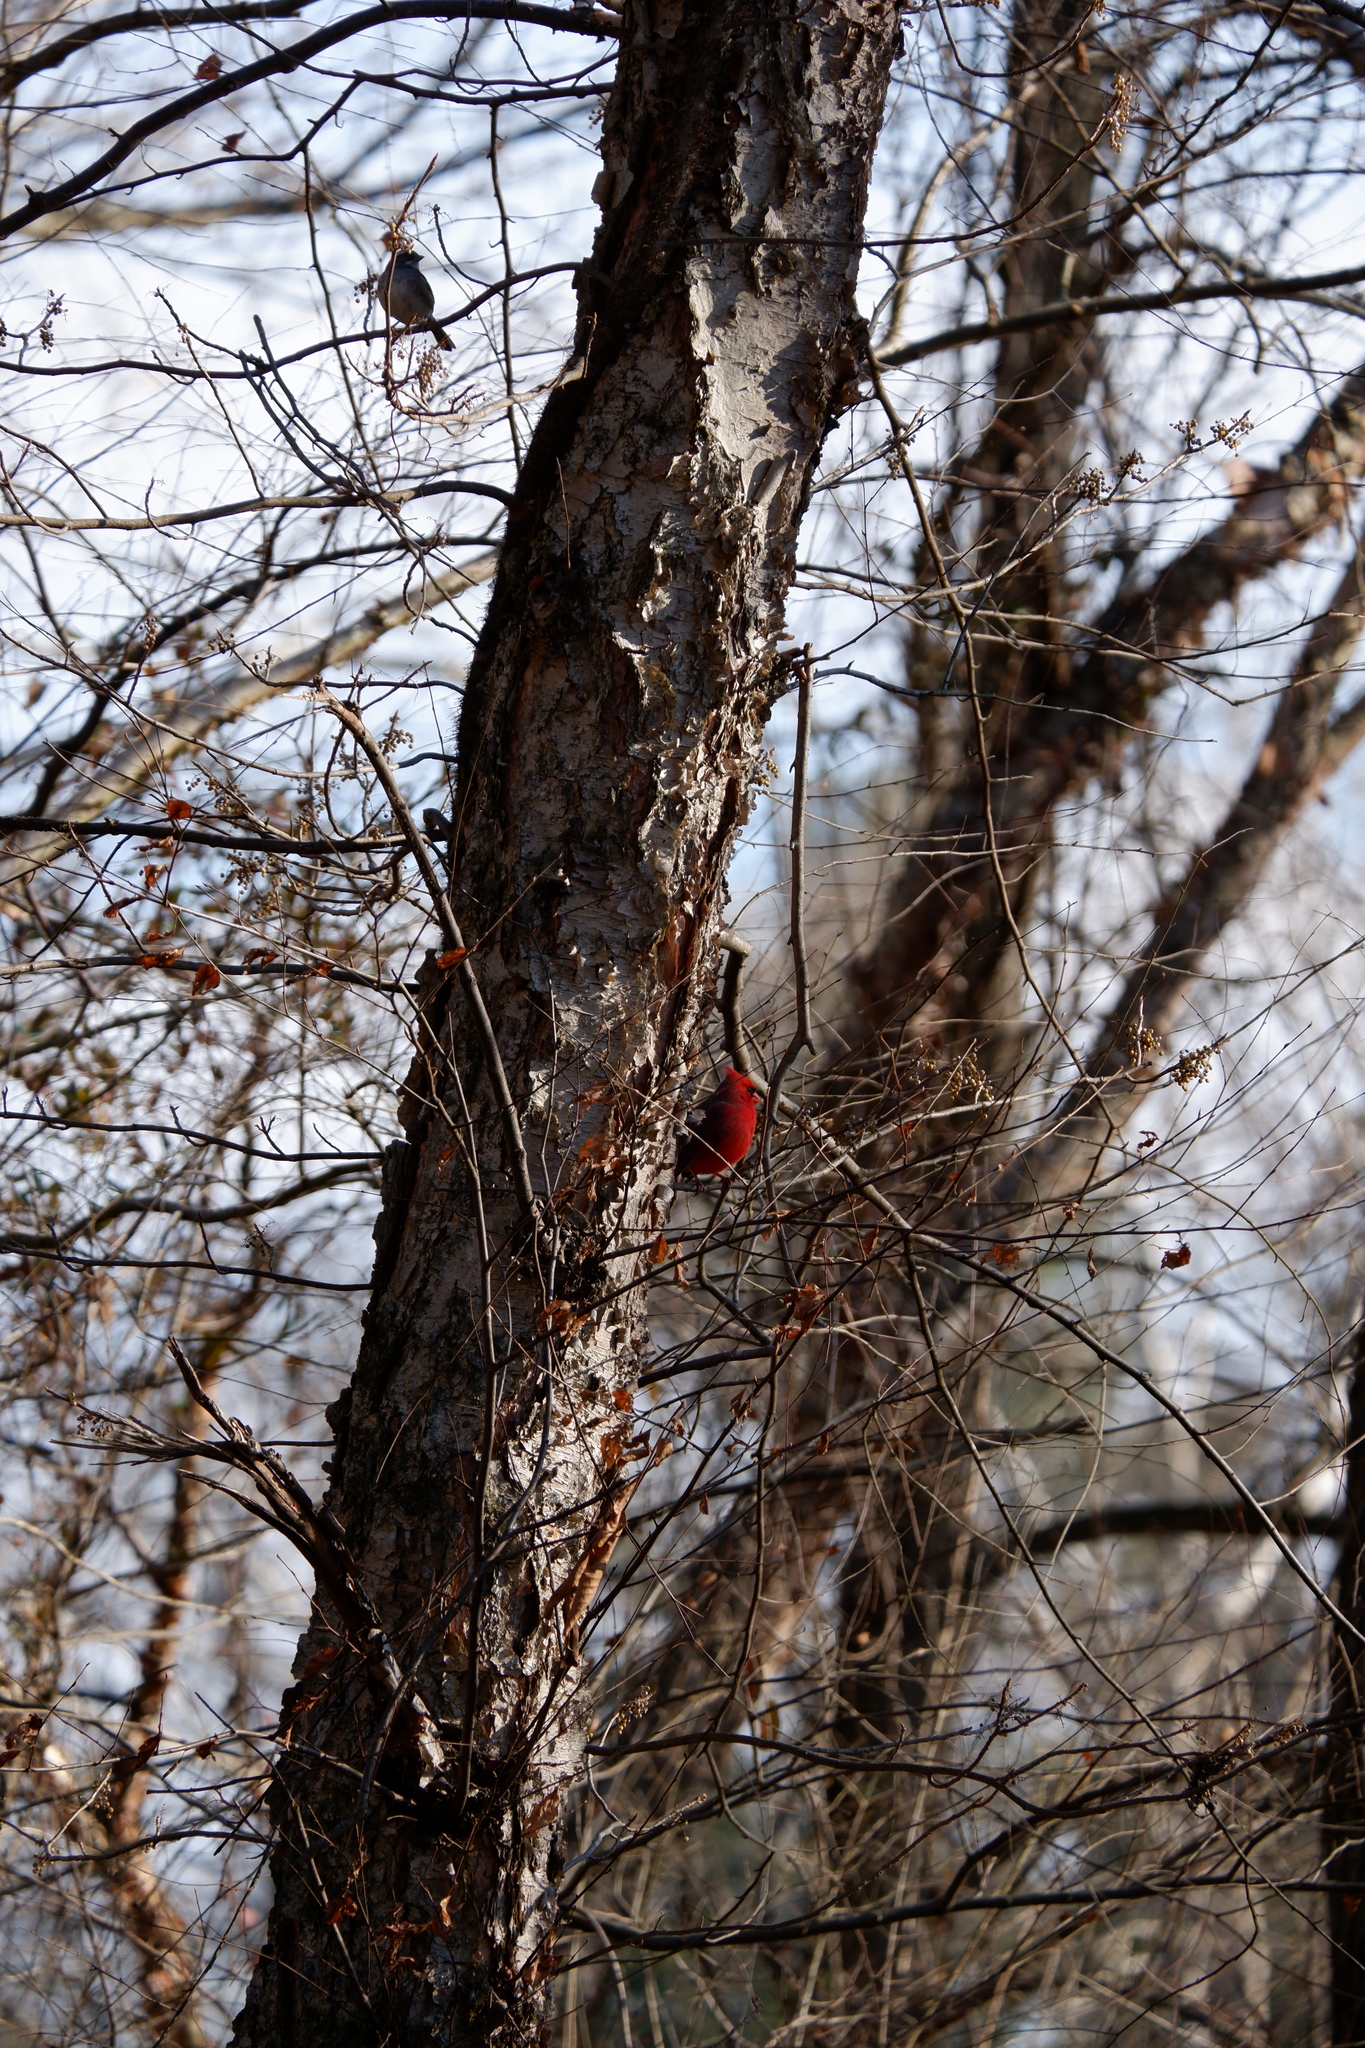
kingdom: Animalia
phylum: Chordata
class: Aves
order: Passeriformes
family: Cardinalidae
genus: Cardinalis
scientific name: Cardinalis cardinalis
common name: Northern cardinal
